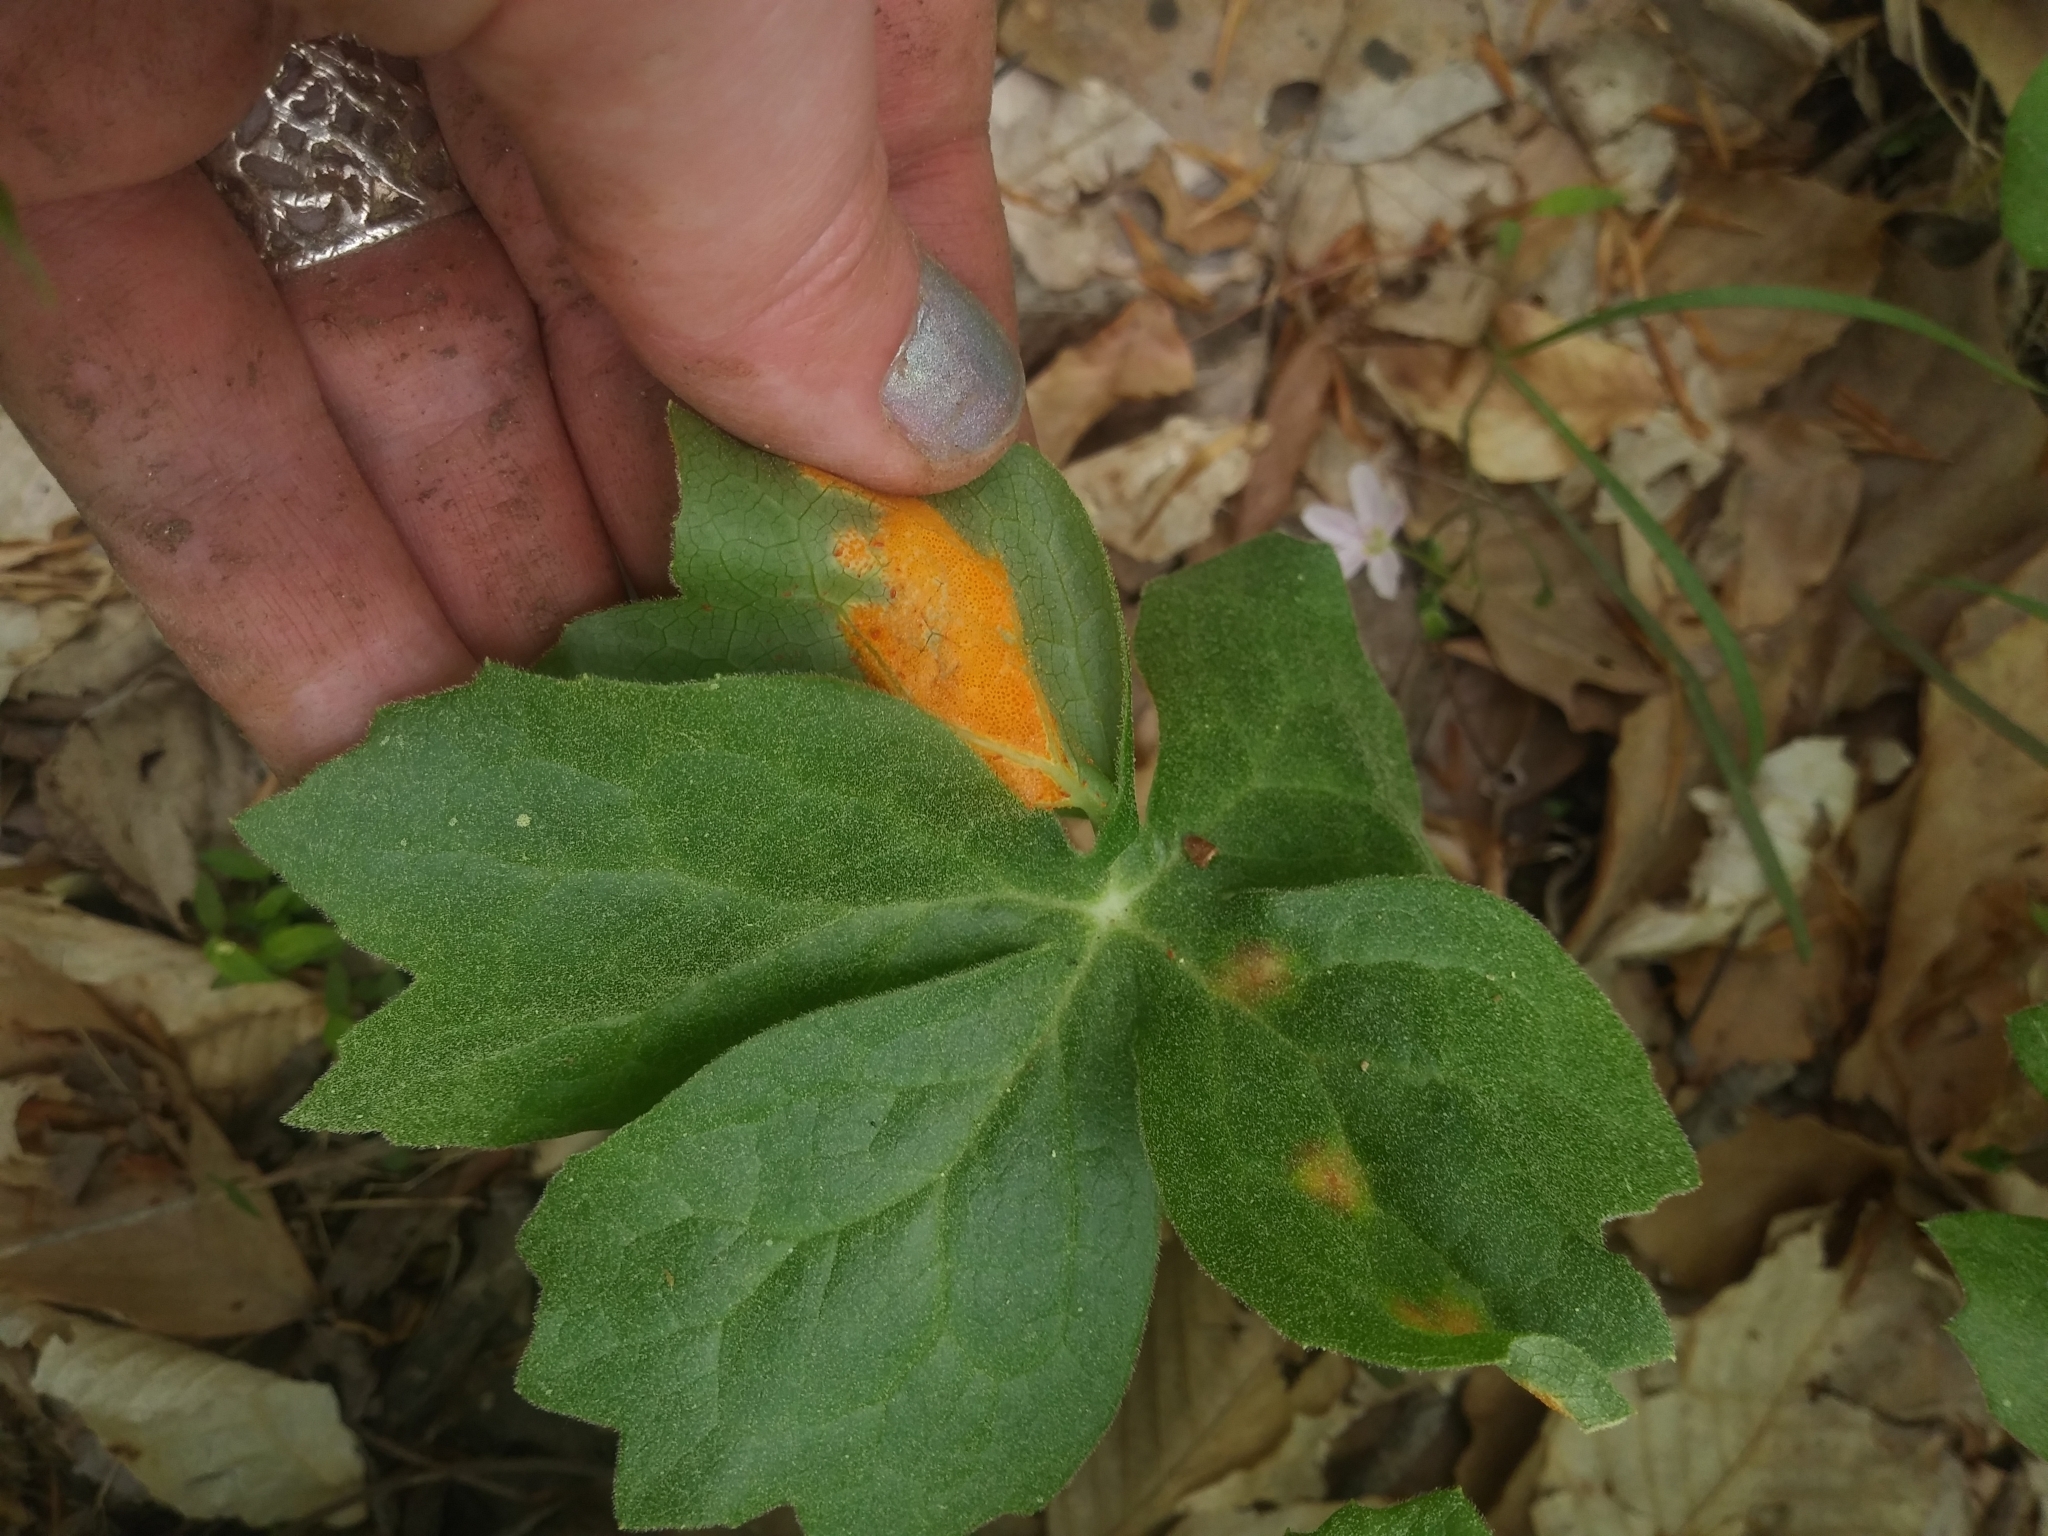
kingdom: Fungi
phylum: Basidiomycota
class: Pucciniomycetes
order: Pucciniales
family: Pucciniaceae
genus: Puccinia
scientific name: Puccinia podophylli
